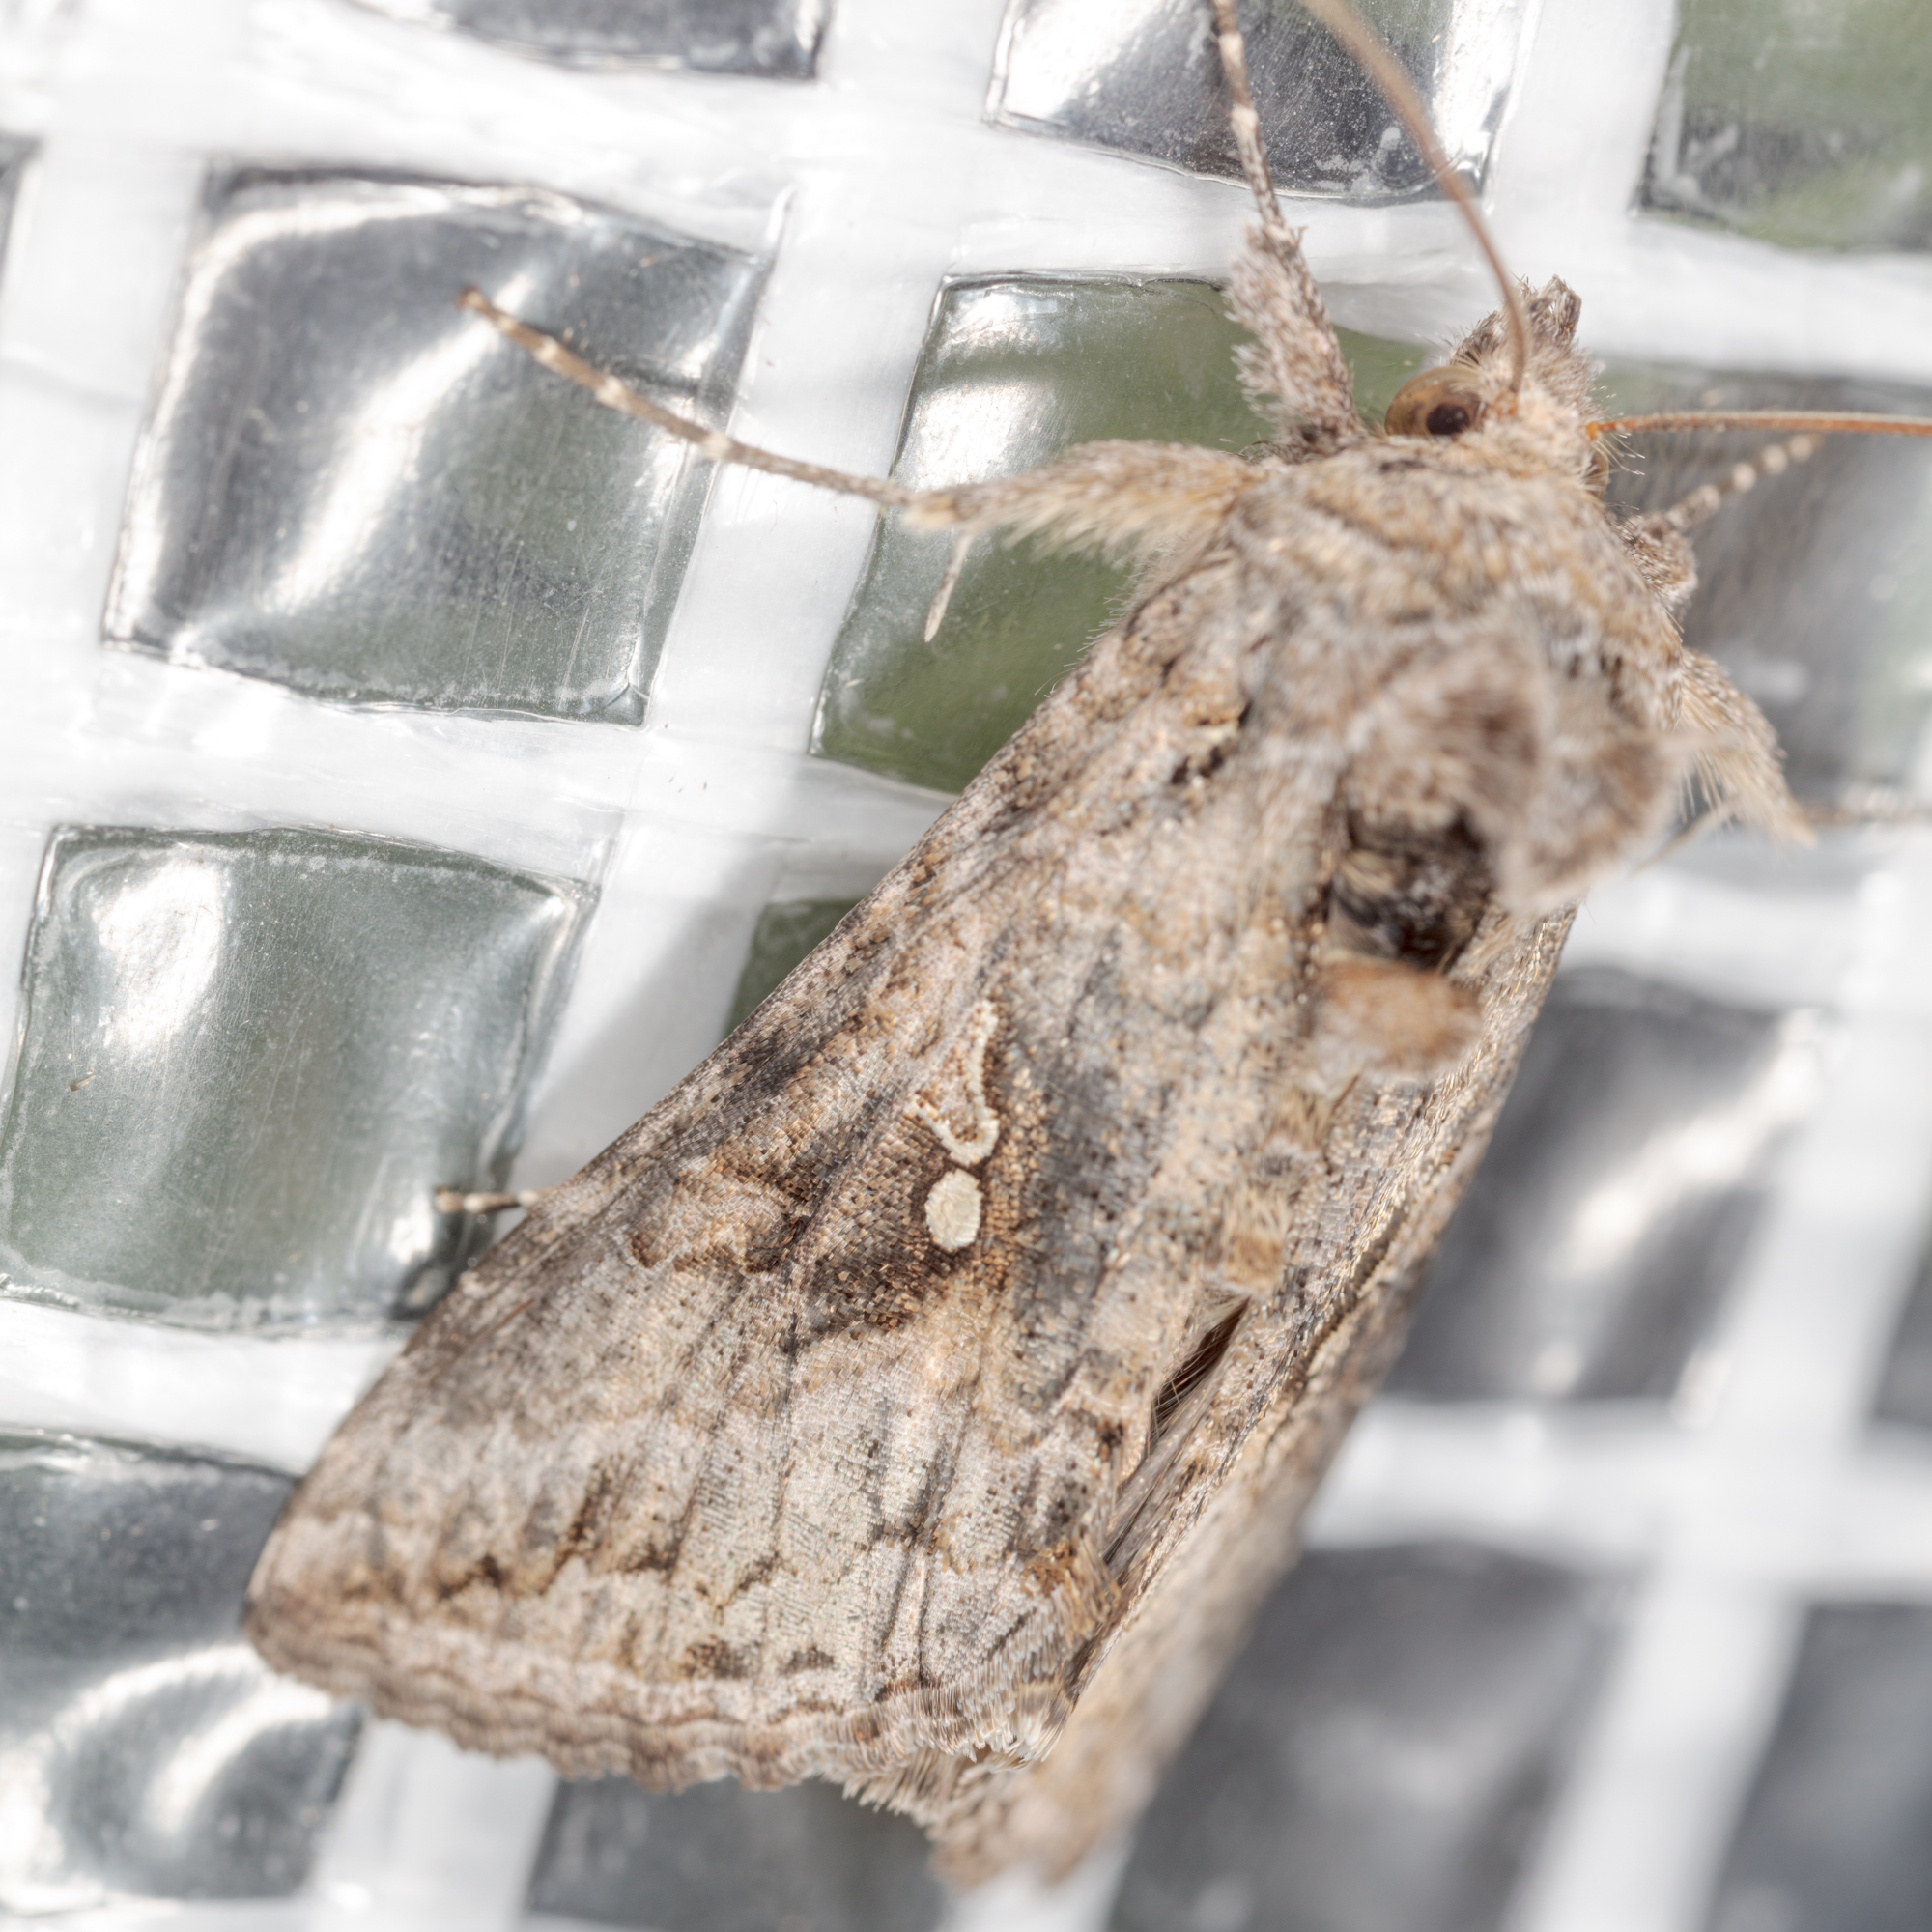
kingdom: Animalia
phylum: Arthropoda
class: Insecta
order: Lepidoptera
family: Noctuidae
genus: Rachiplusia
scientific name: Rachiplusia ou
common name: Gray looper moth
